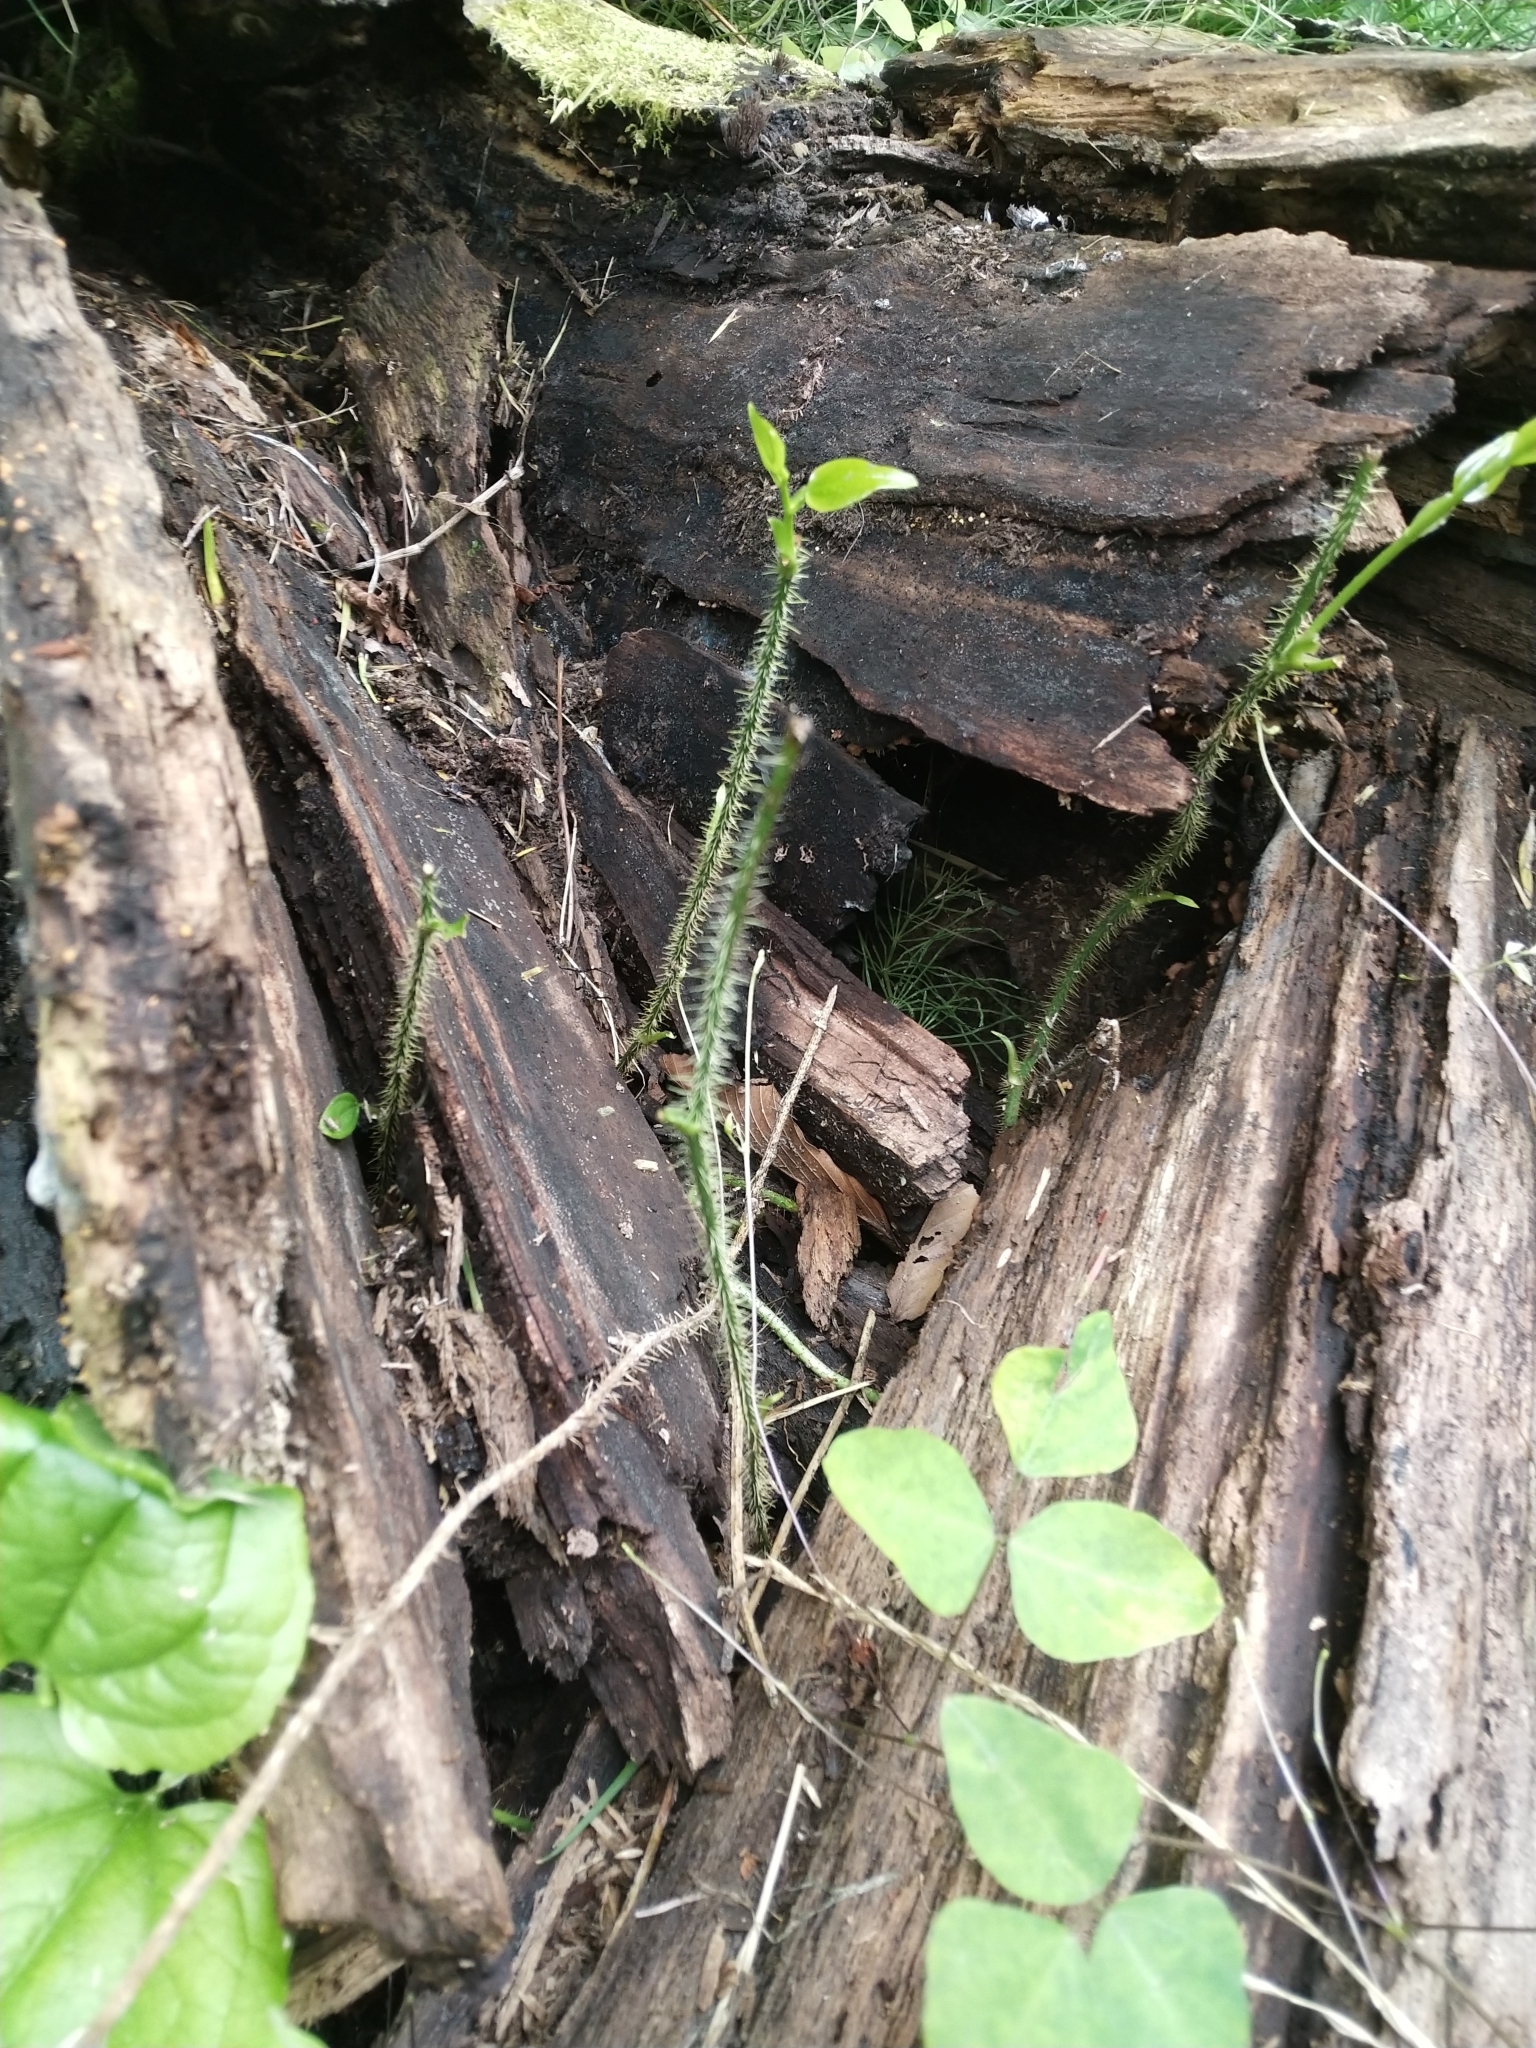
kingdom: Plantae
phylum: Tracheophyta
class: Liliopsida
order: Liliales
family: Smilacaceae
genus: Smilax
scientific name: Smilax tamnoides
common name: Hellfetter
